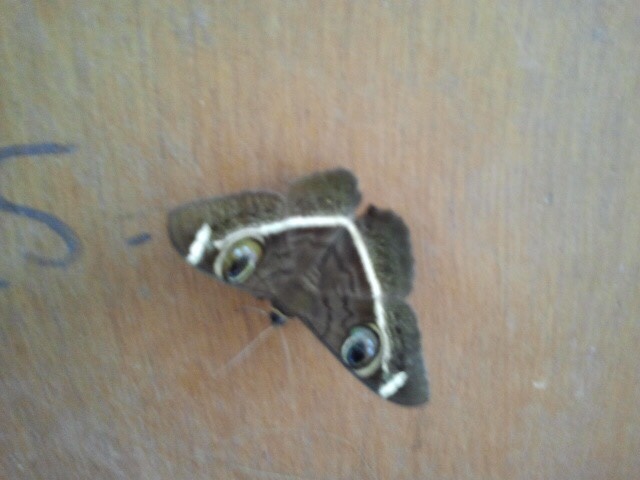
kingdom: Animalia
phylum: Arthropoda
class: Insecta
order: Lepidoptera
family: Erebidae
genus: Cyligramma
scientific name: Cyligramma latona
